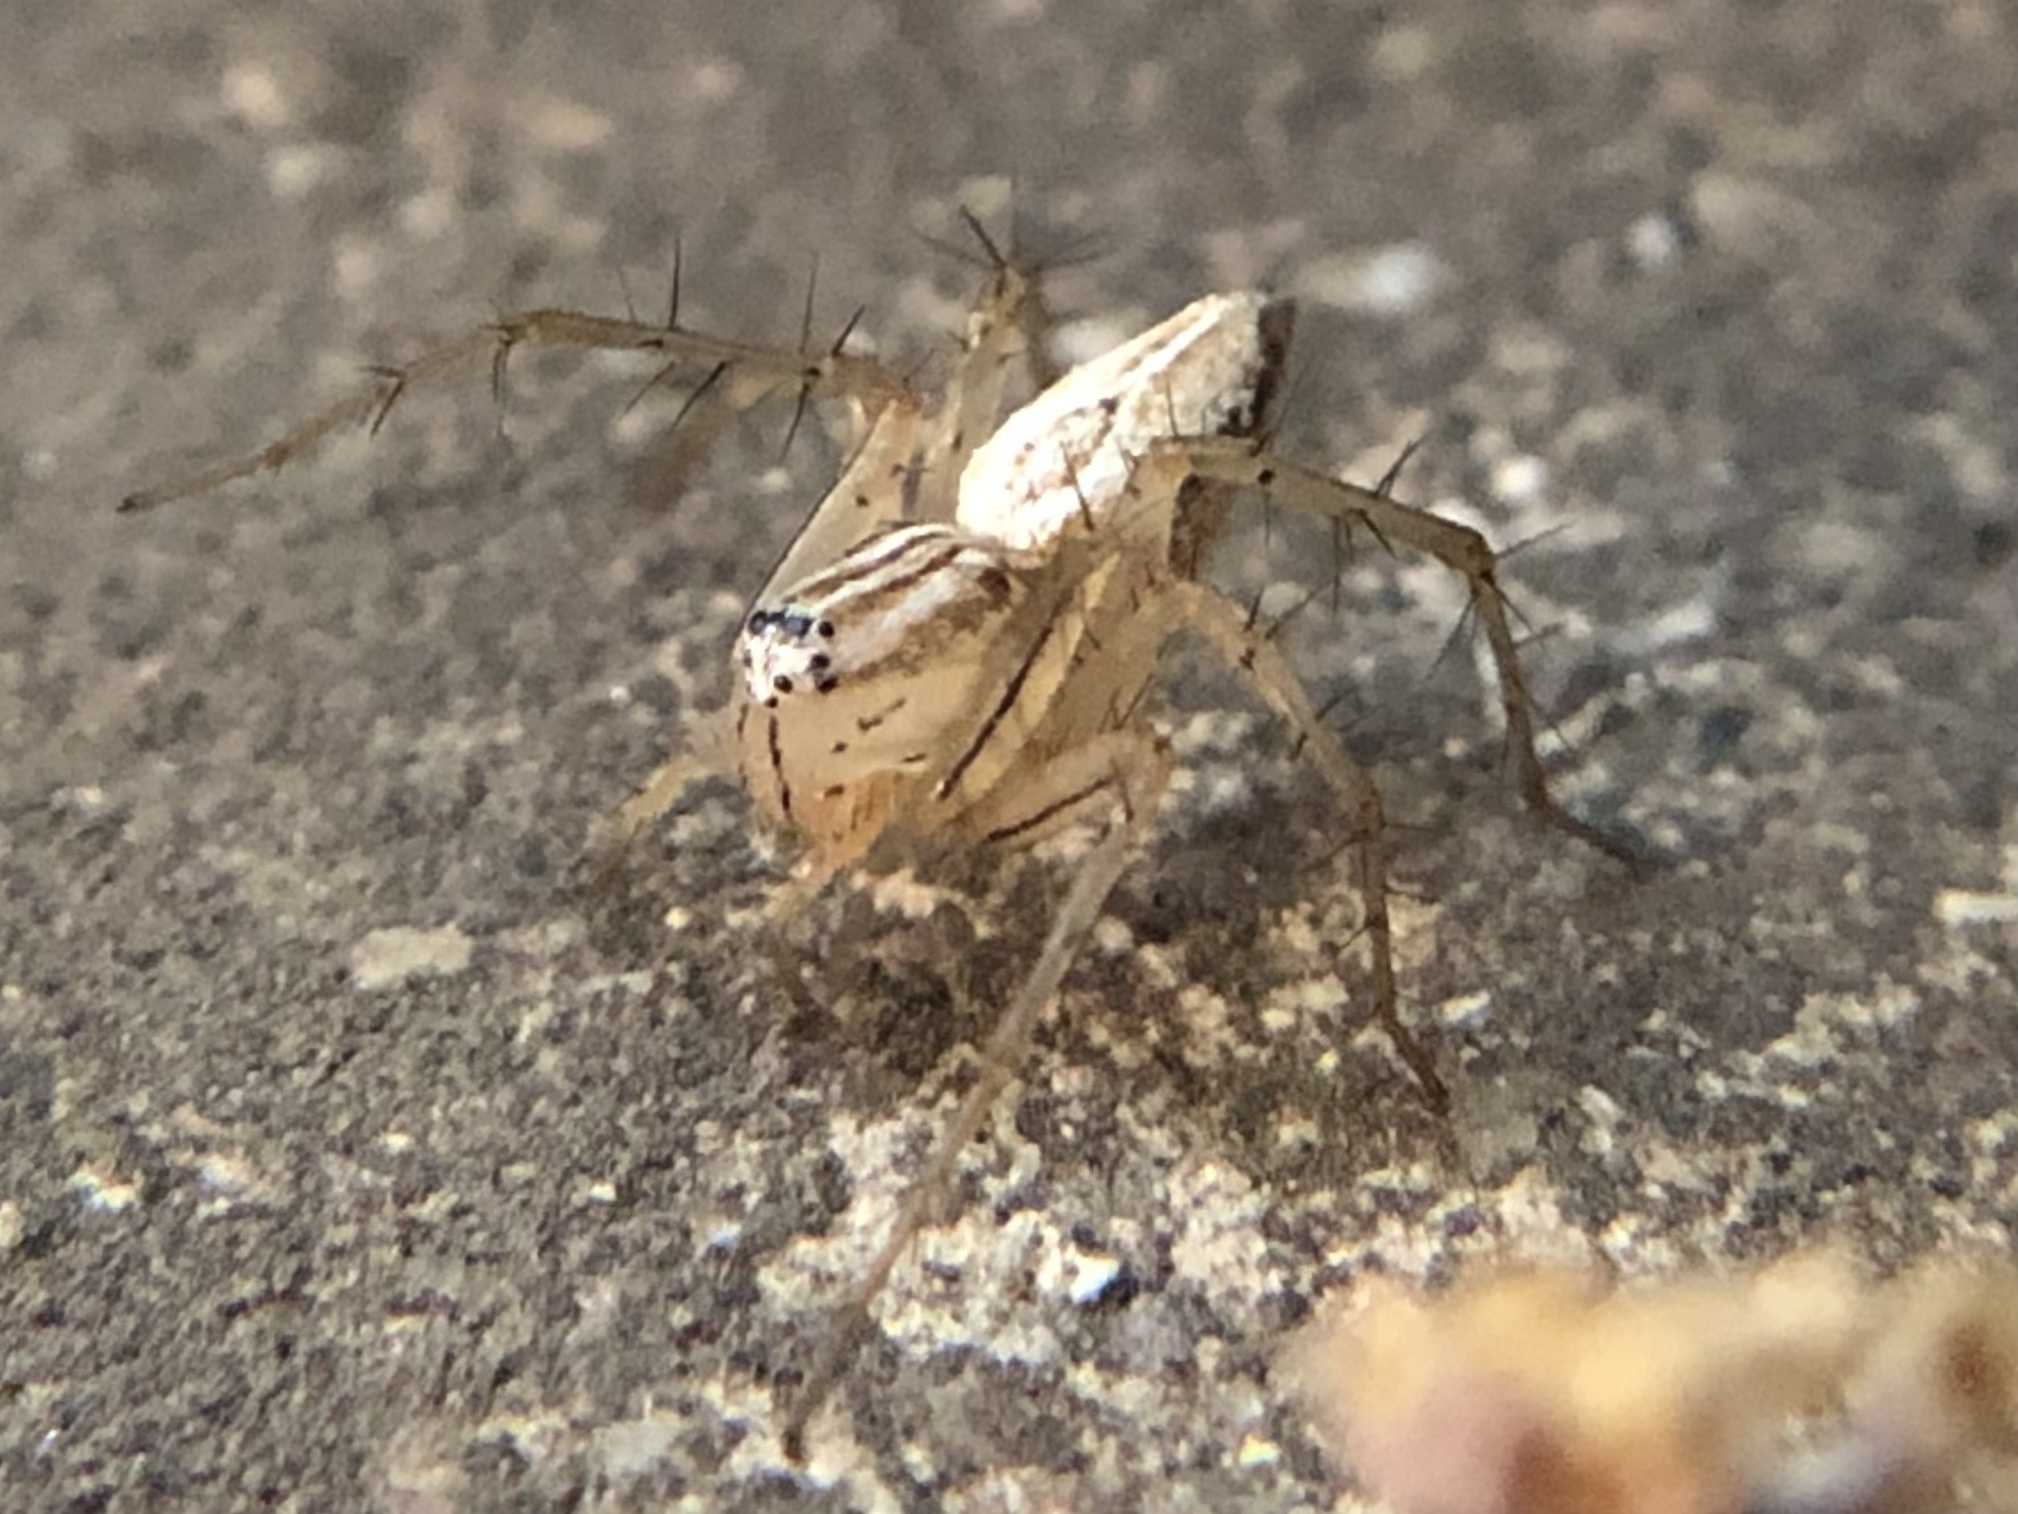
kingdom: Animalia
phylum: Arthropoda
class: Arachnida
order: Araneae
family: Oxyopidae
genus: Oxyopes
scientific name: Oxyopes salticus
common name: Lynx spiders
